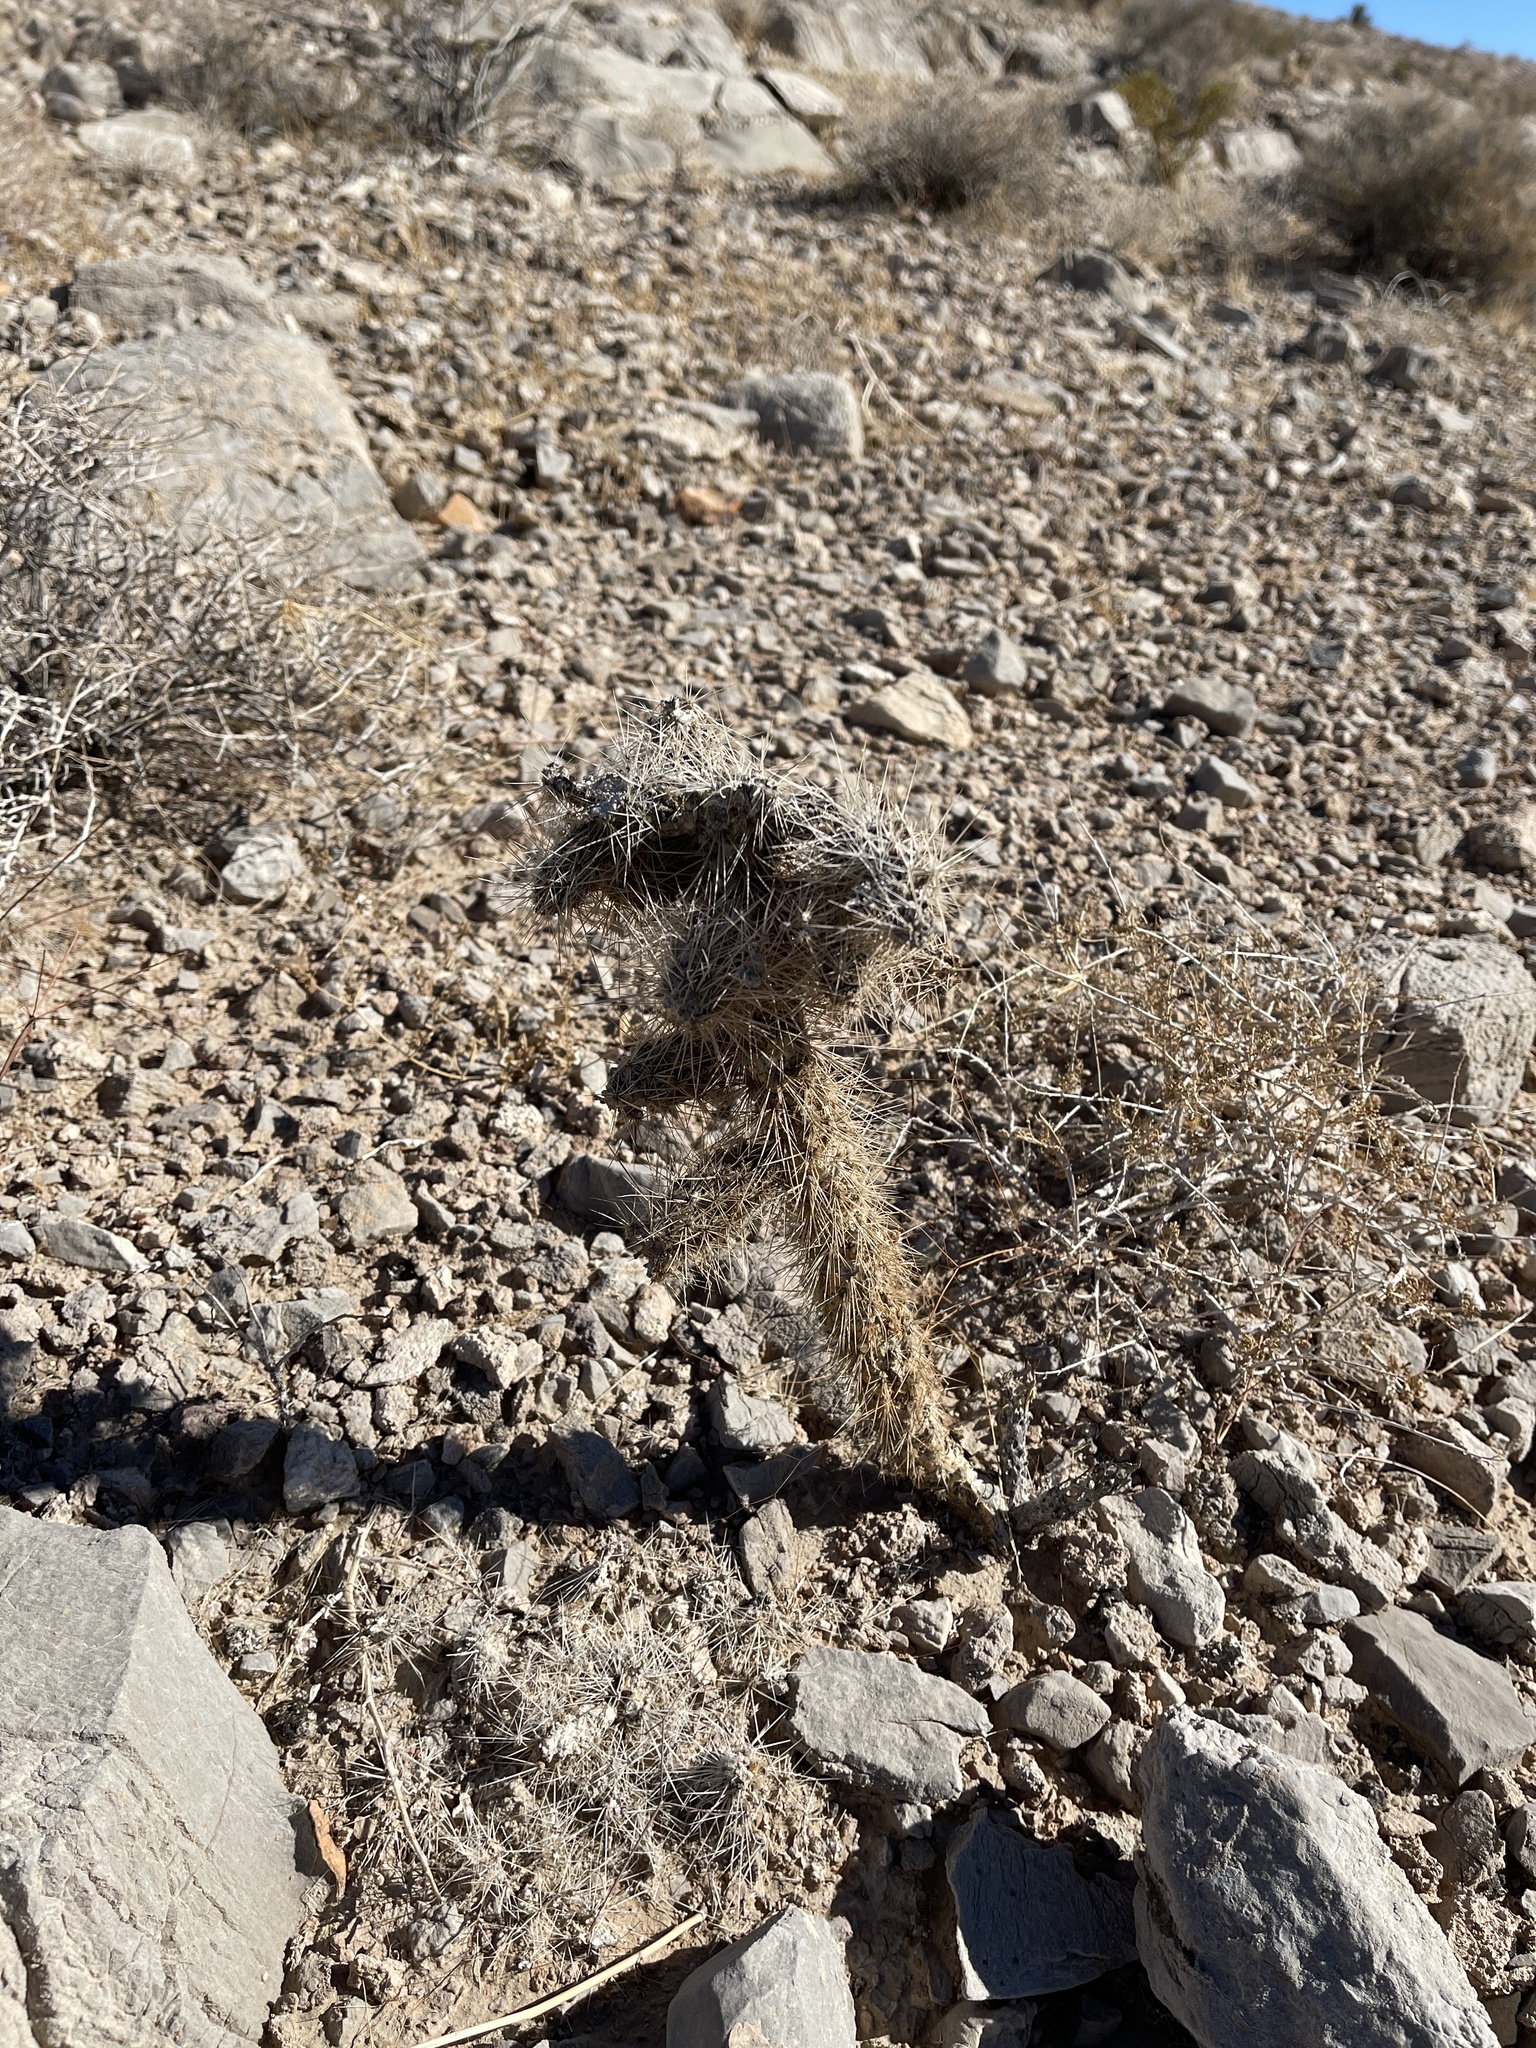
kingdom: Plantae
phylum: Tracheophyta
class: Magnoliopsida
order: Caryophyllales
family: Cactaceae
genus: Cylindropuntia
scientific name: Cylindropuntia echinocarpa
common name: Ground cholla
